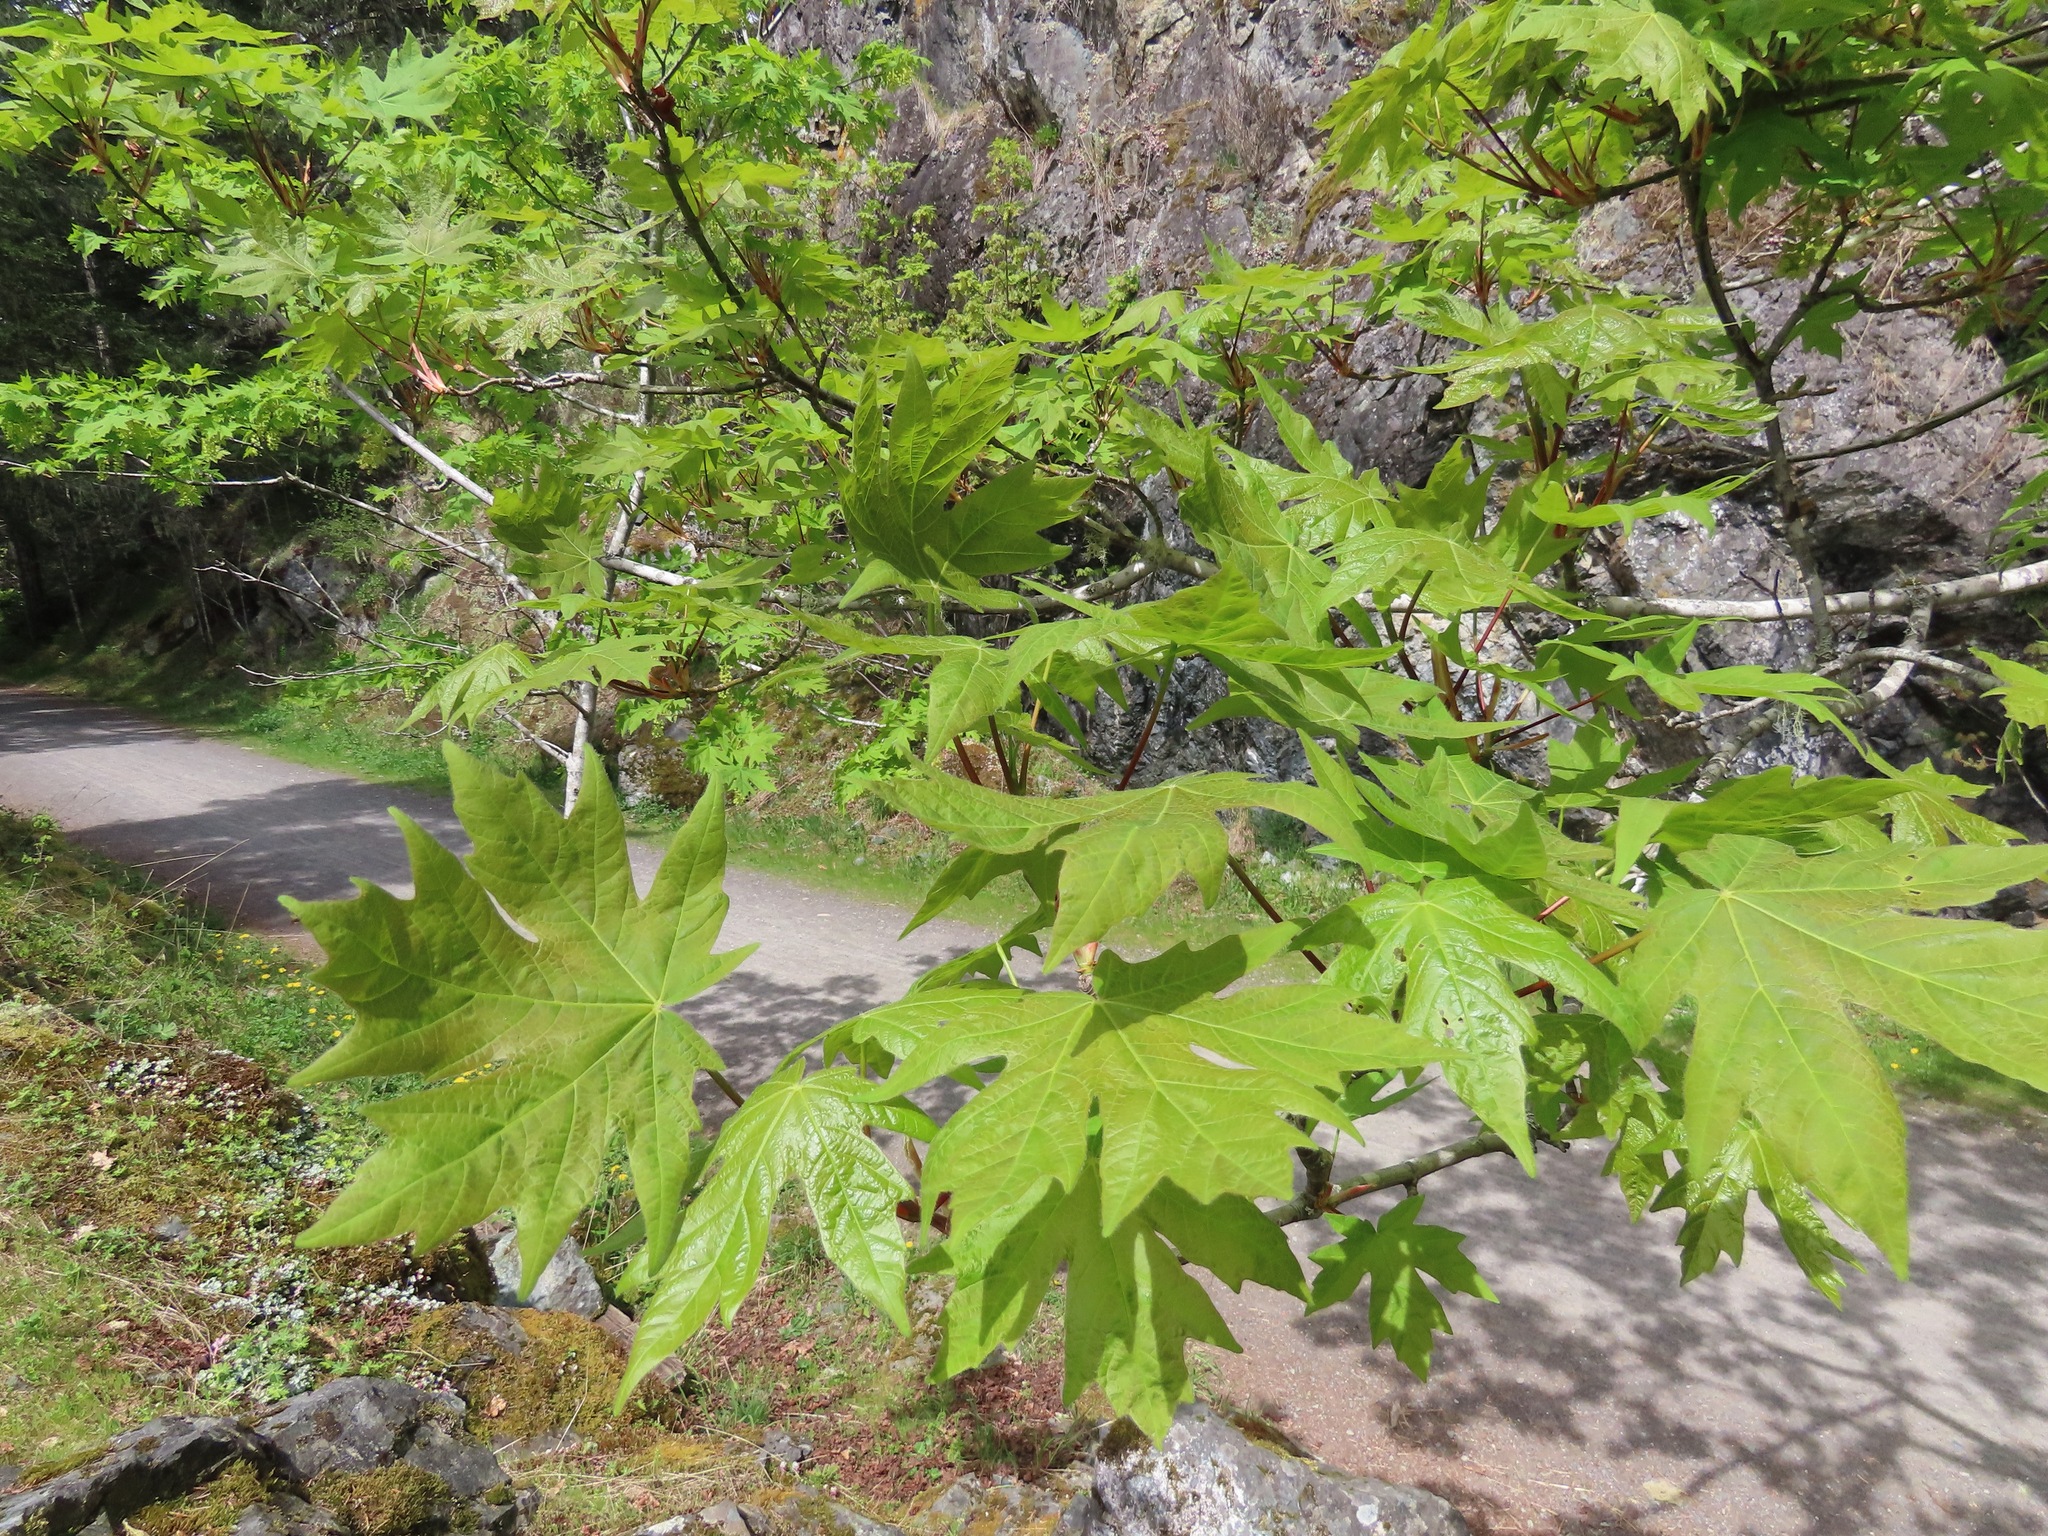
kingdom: Plantae
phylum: Tracheophyta
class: Magnoliopsida
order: Sapindales
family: Sapindaceae
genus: Acer
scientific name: Acer macrophyllum
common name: Oregon maple
